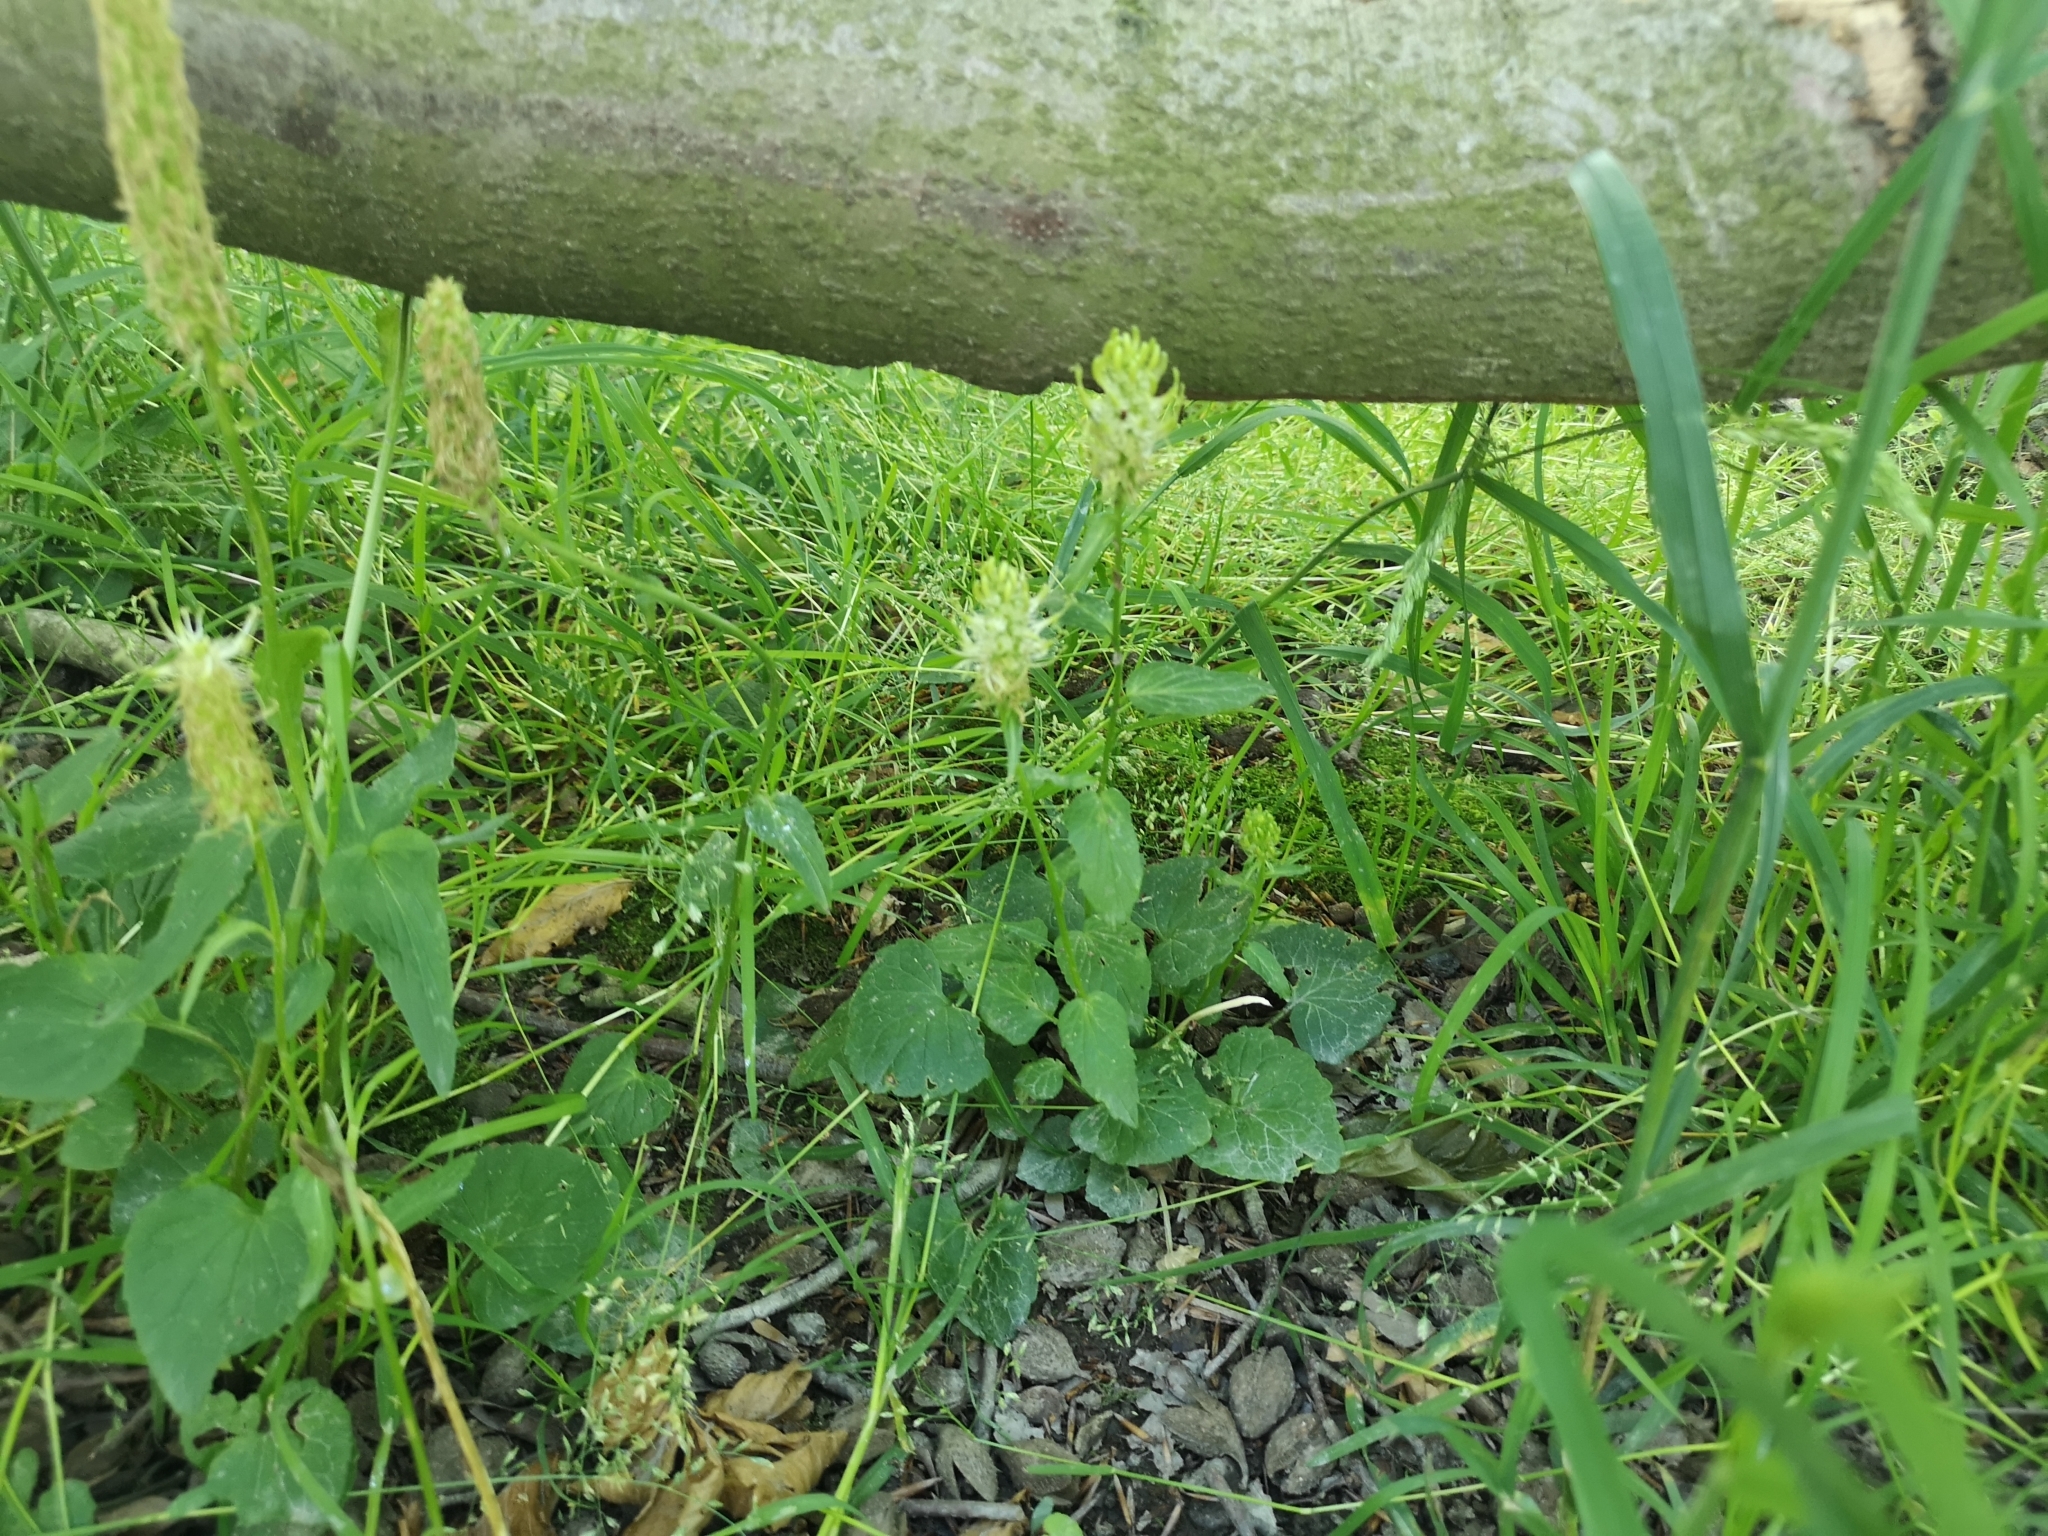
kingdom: Plantae
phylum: Tracheophyta
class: Magnoliopsida
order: Asterales
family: Campanulaceae
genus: Phyteuma
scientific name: Phyteuma spicatum
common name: Spiked rampion
